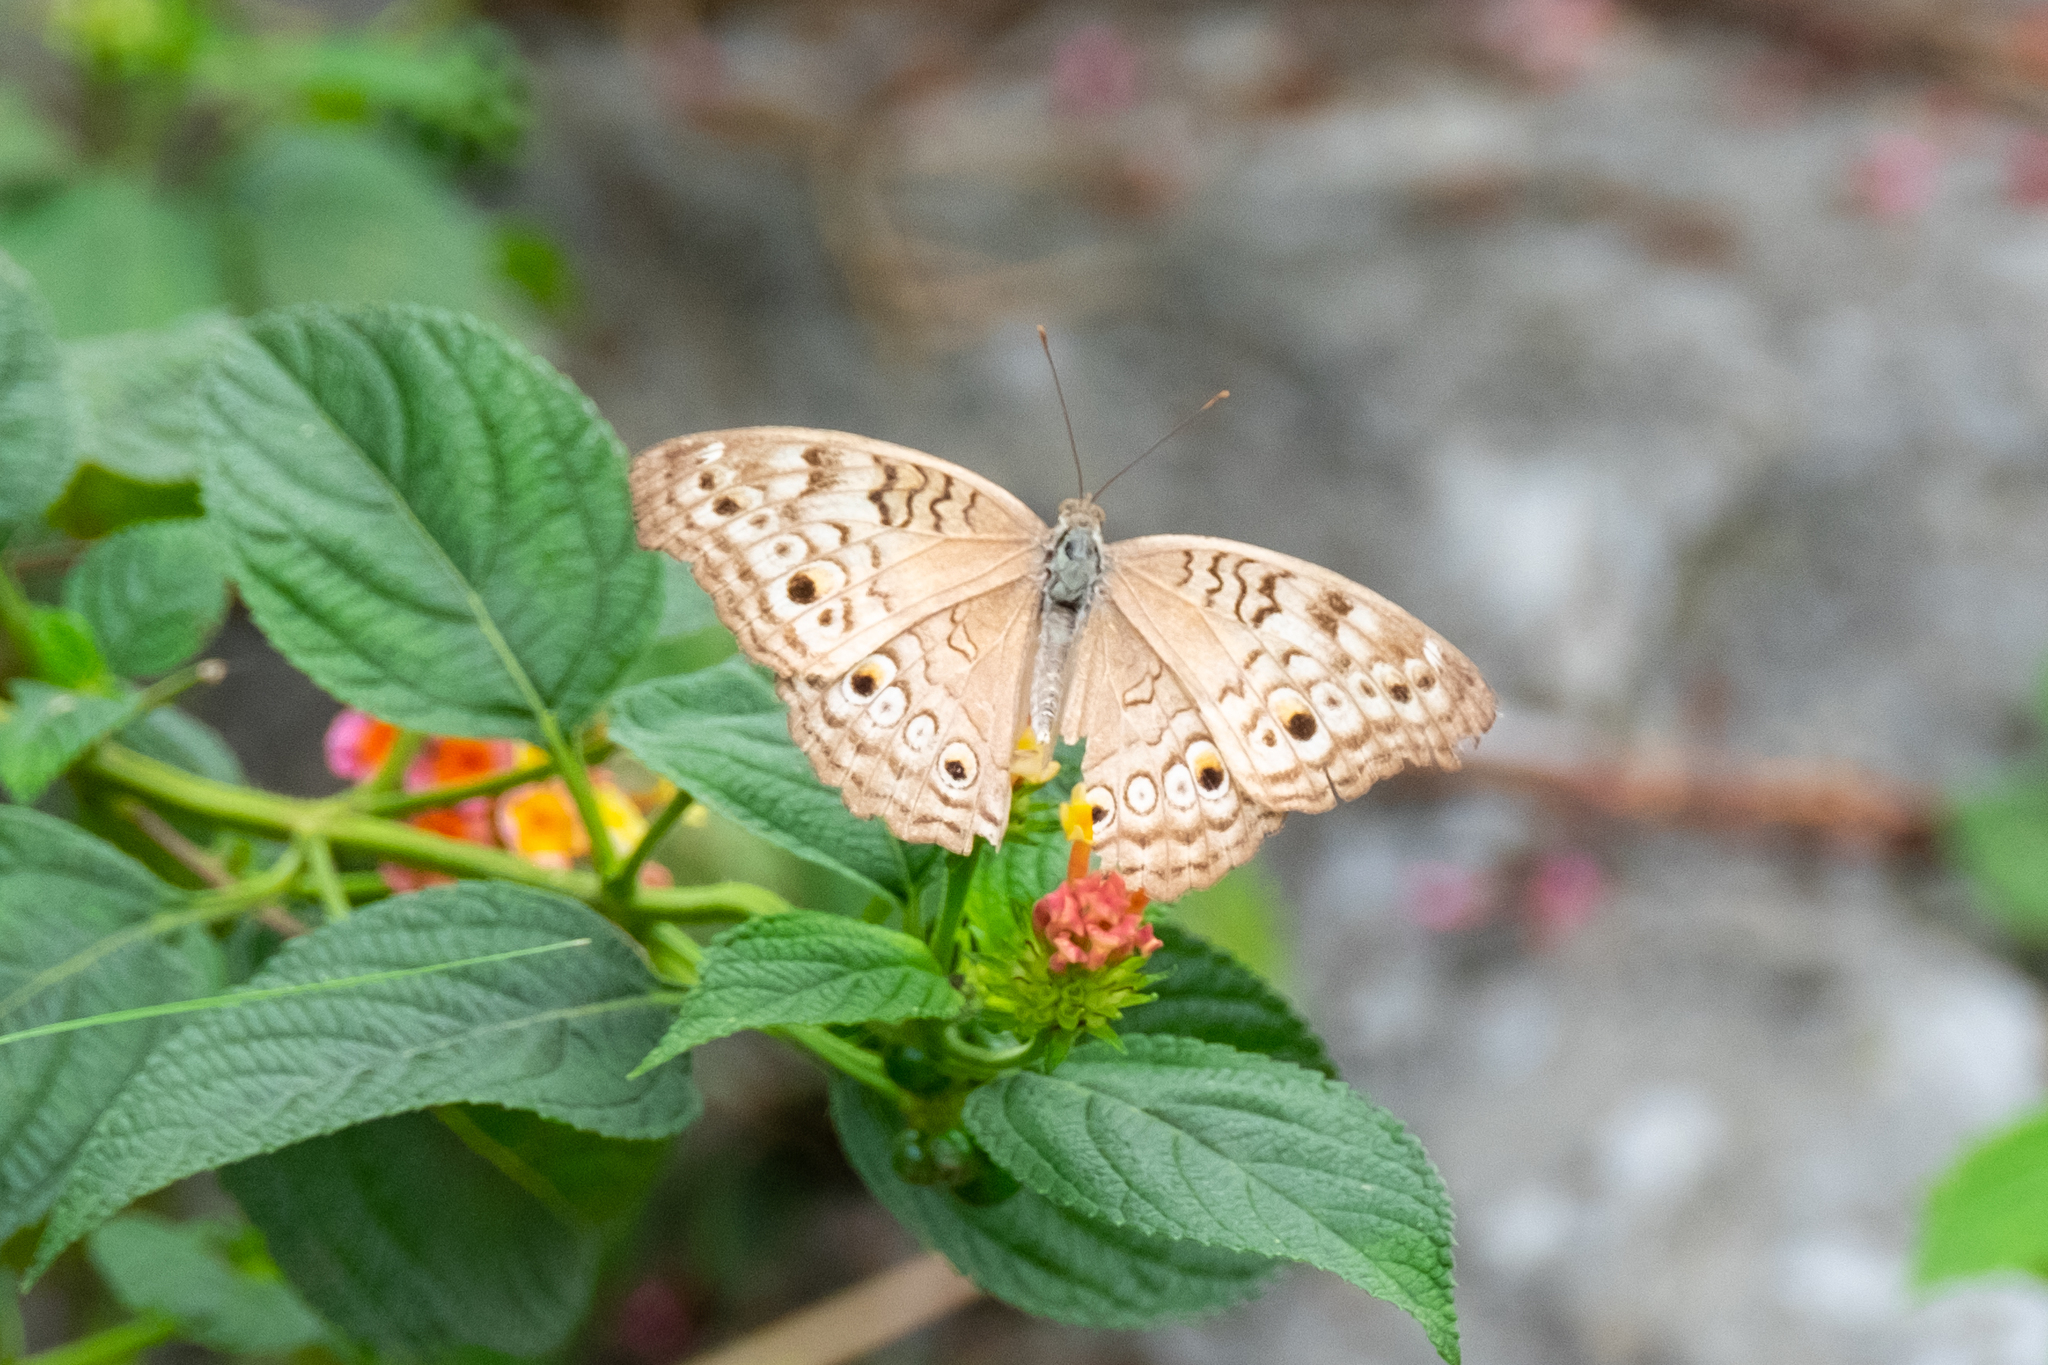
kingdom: Animalia
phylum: Arthropoda
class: Insecta
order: Lepidoptera
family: Nymphalidae
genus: Junonia
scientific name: Junonia atlites
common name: Grey pansy
